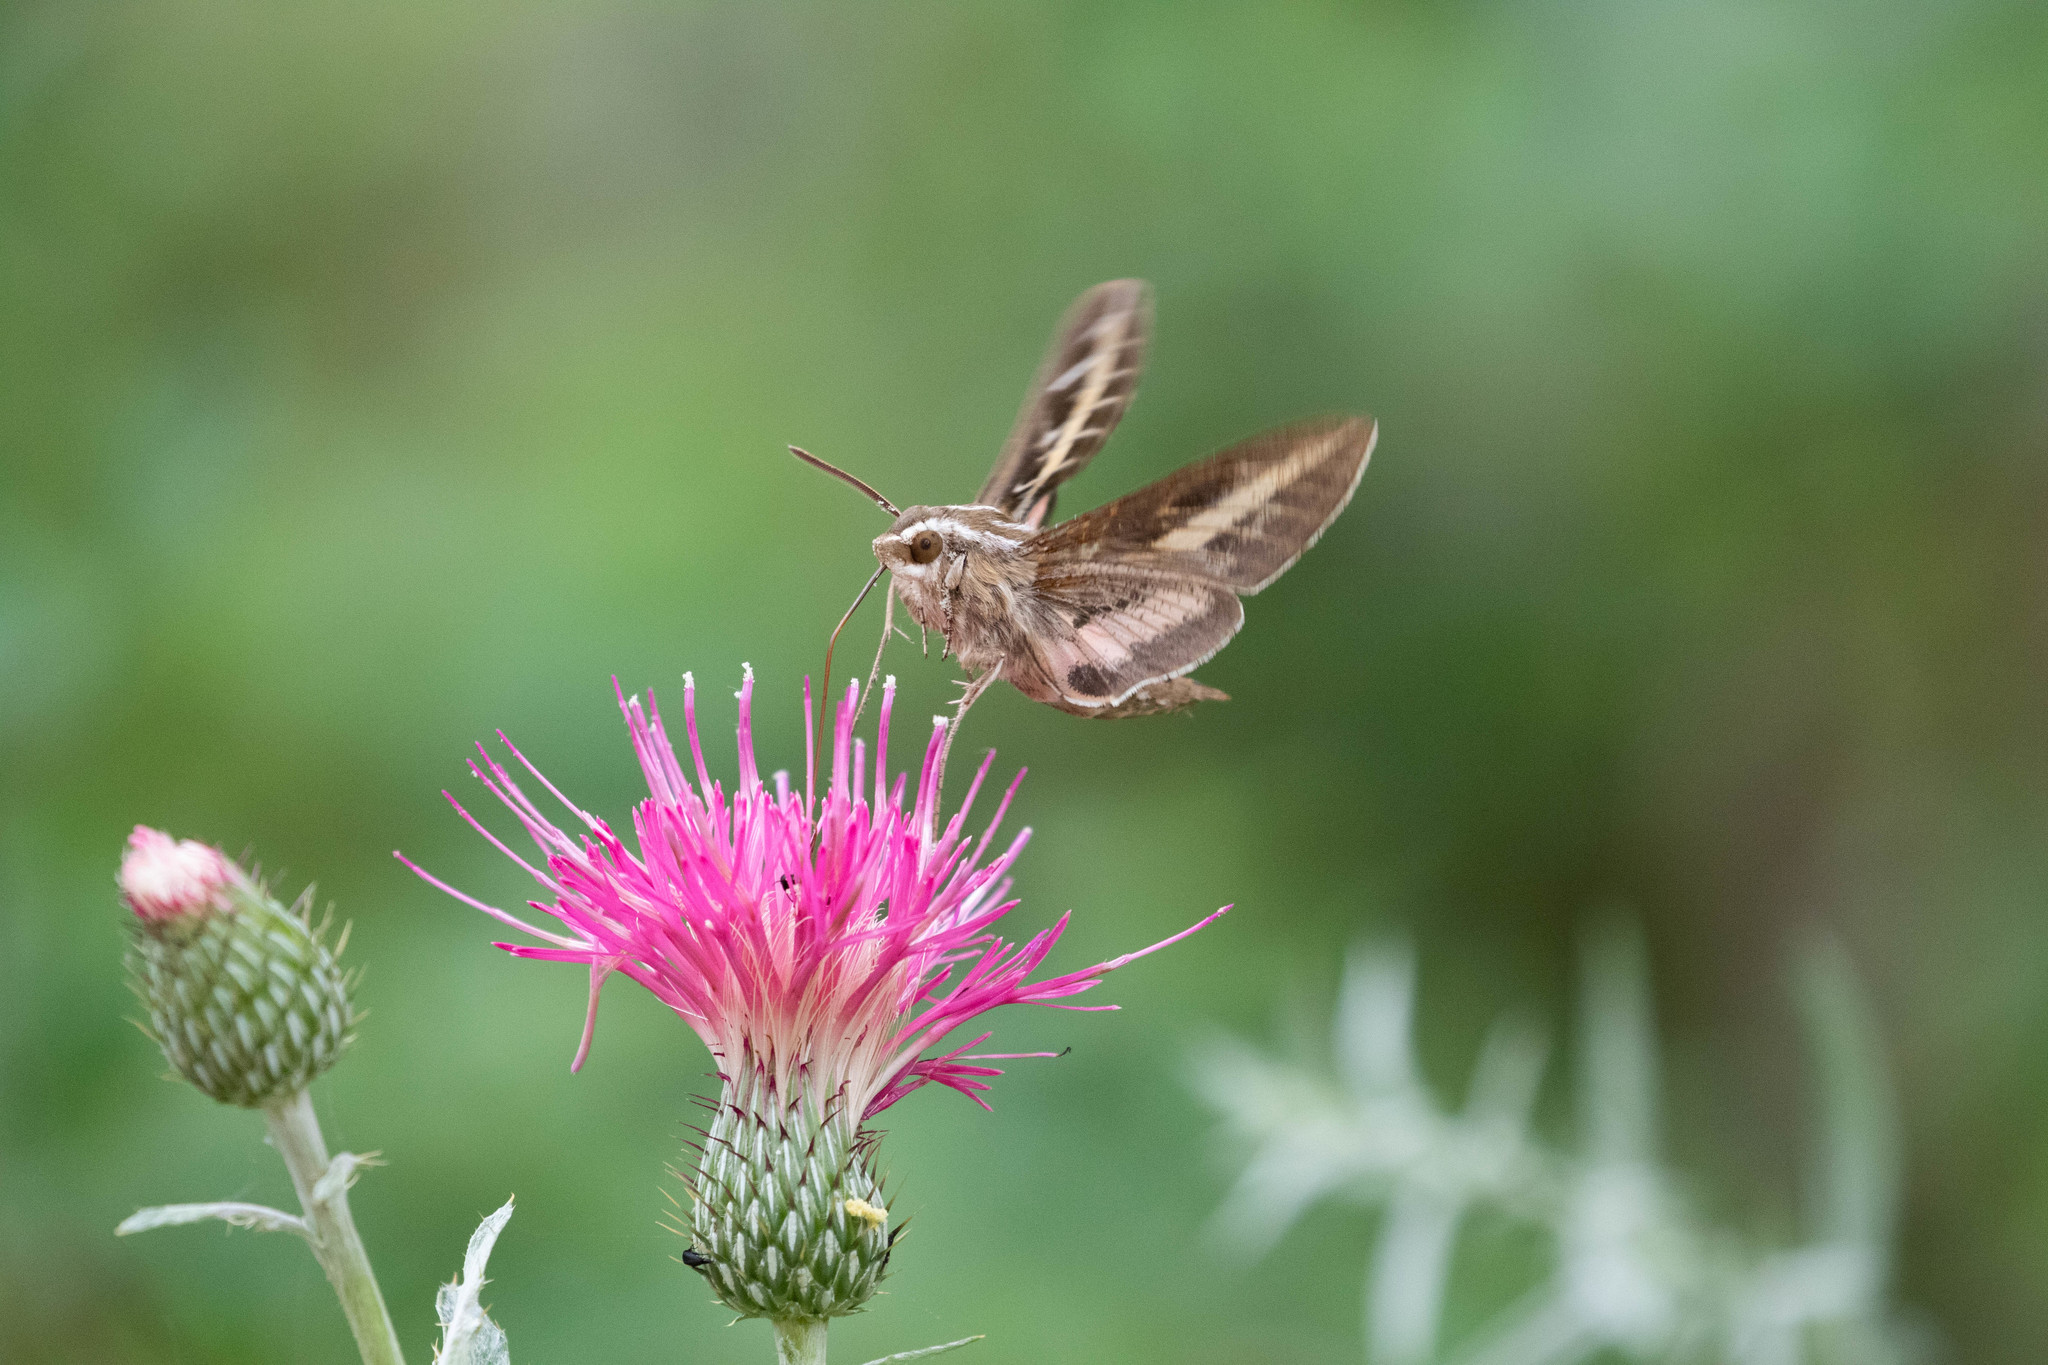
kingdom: Animalia
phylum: Arthropoda
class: Insecta
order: Lepidoptera
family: Sphingidae
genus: Hyles
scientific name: Hyles lineata
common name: White-lined sphinx
